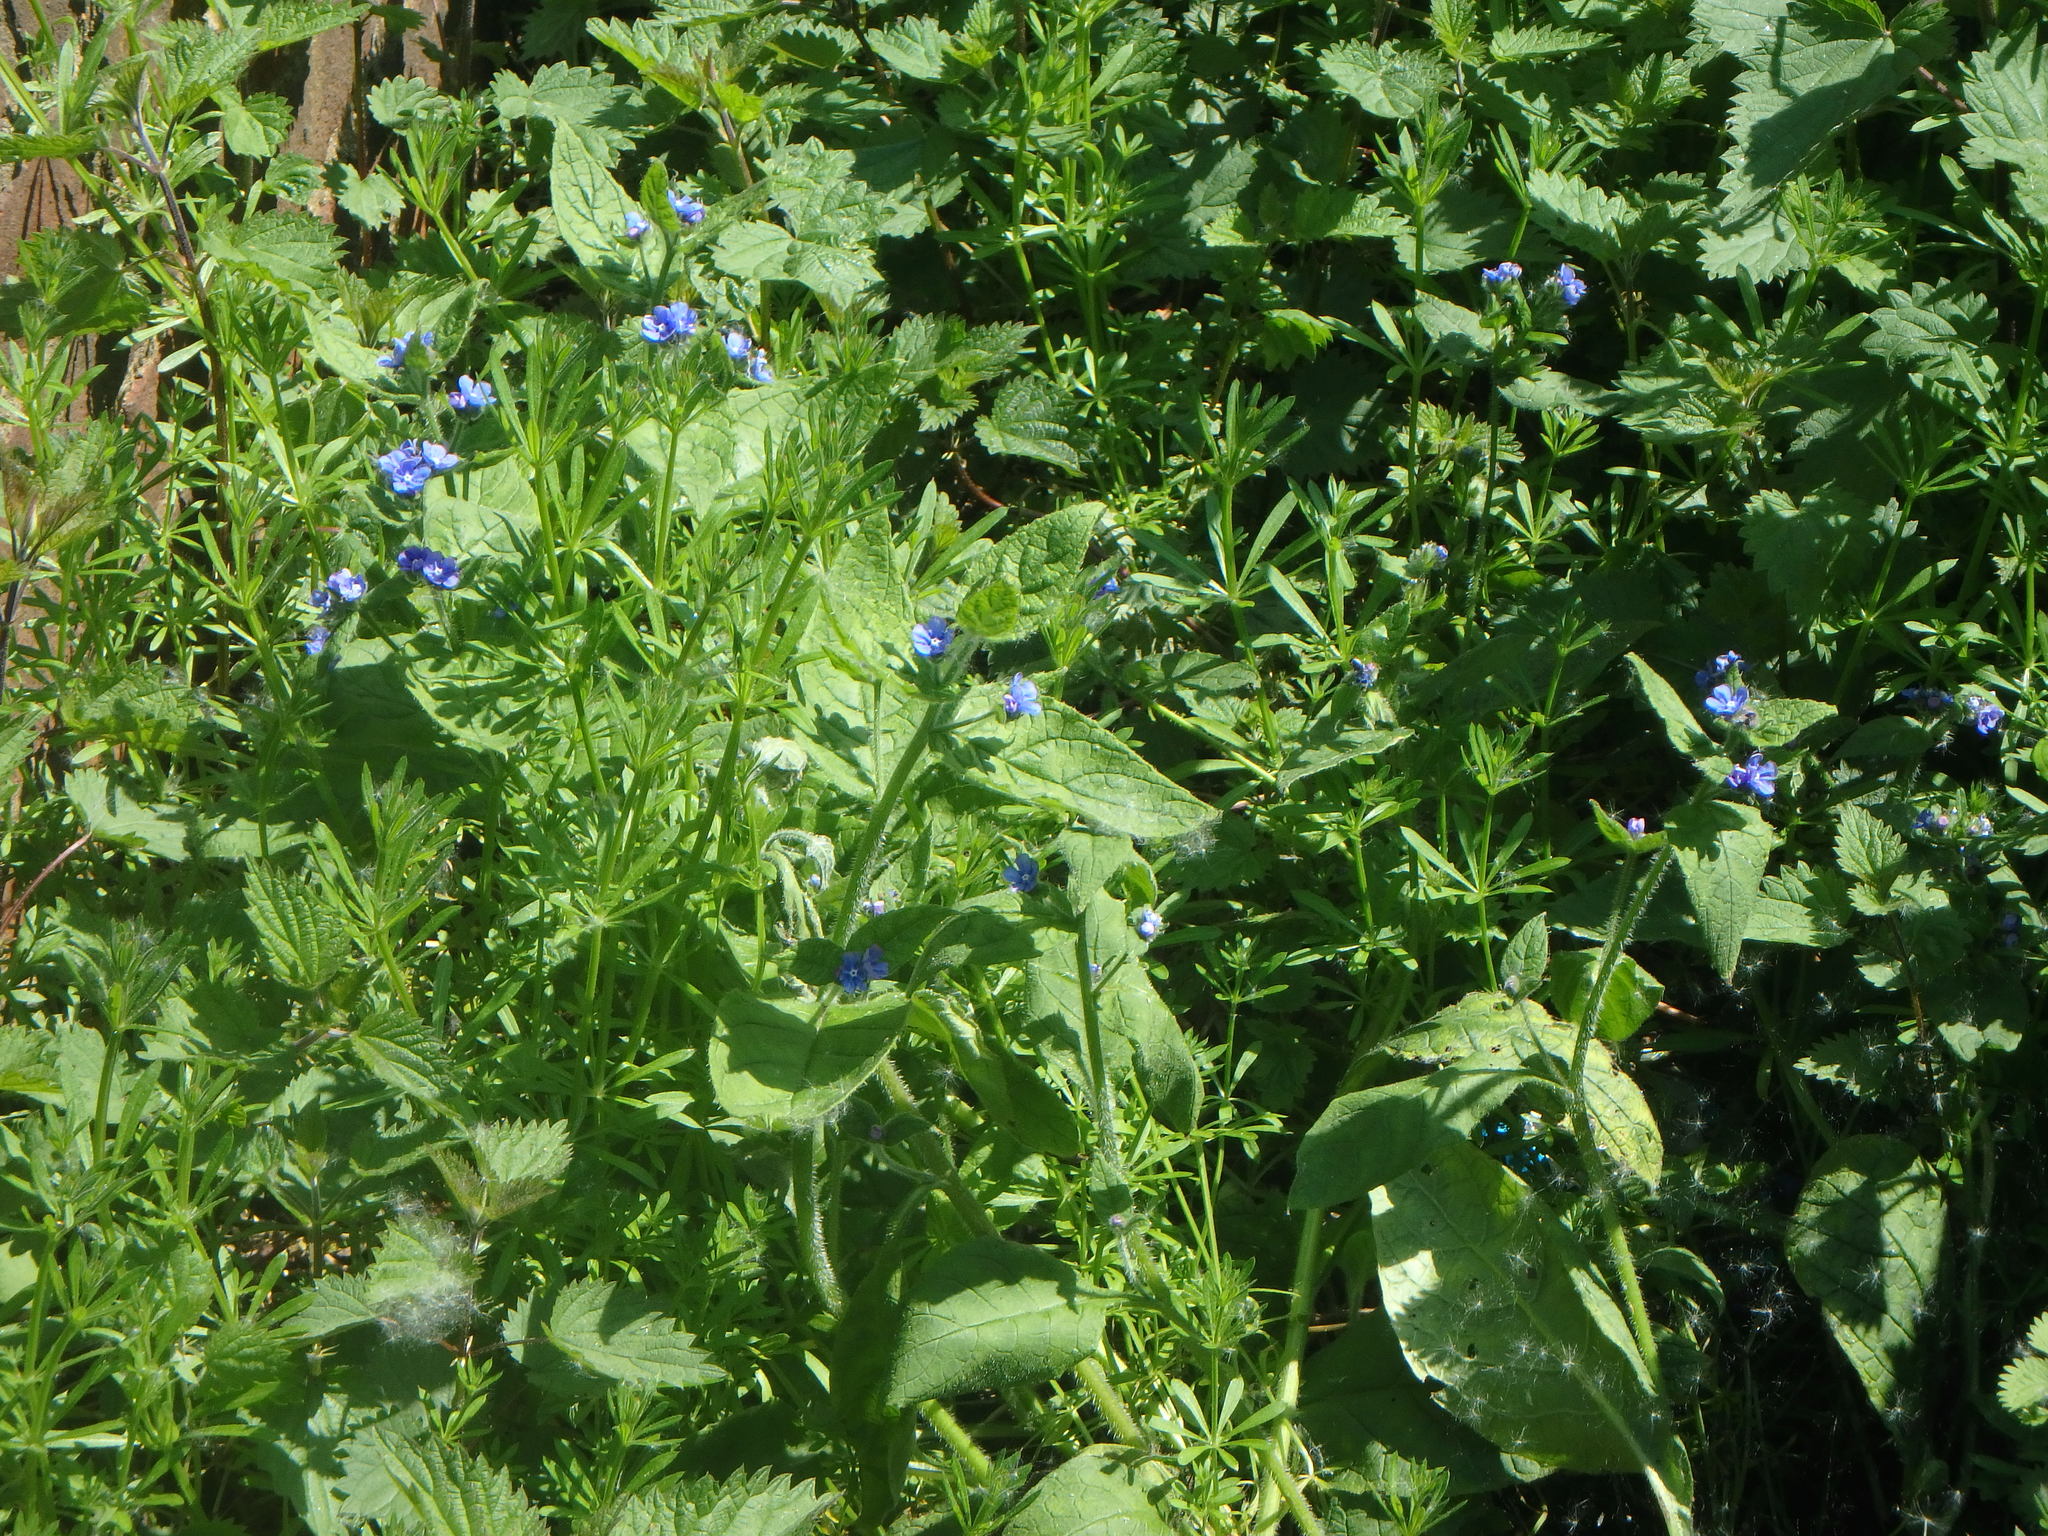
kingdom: Plantae
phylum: Tracheophyta
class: Magnoliopsida
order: Boraginales
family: Boraginaceae
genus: Pentaglottis
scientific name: Pentaglottis sempervirens
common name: Green alkanet
